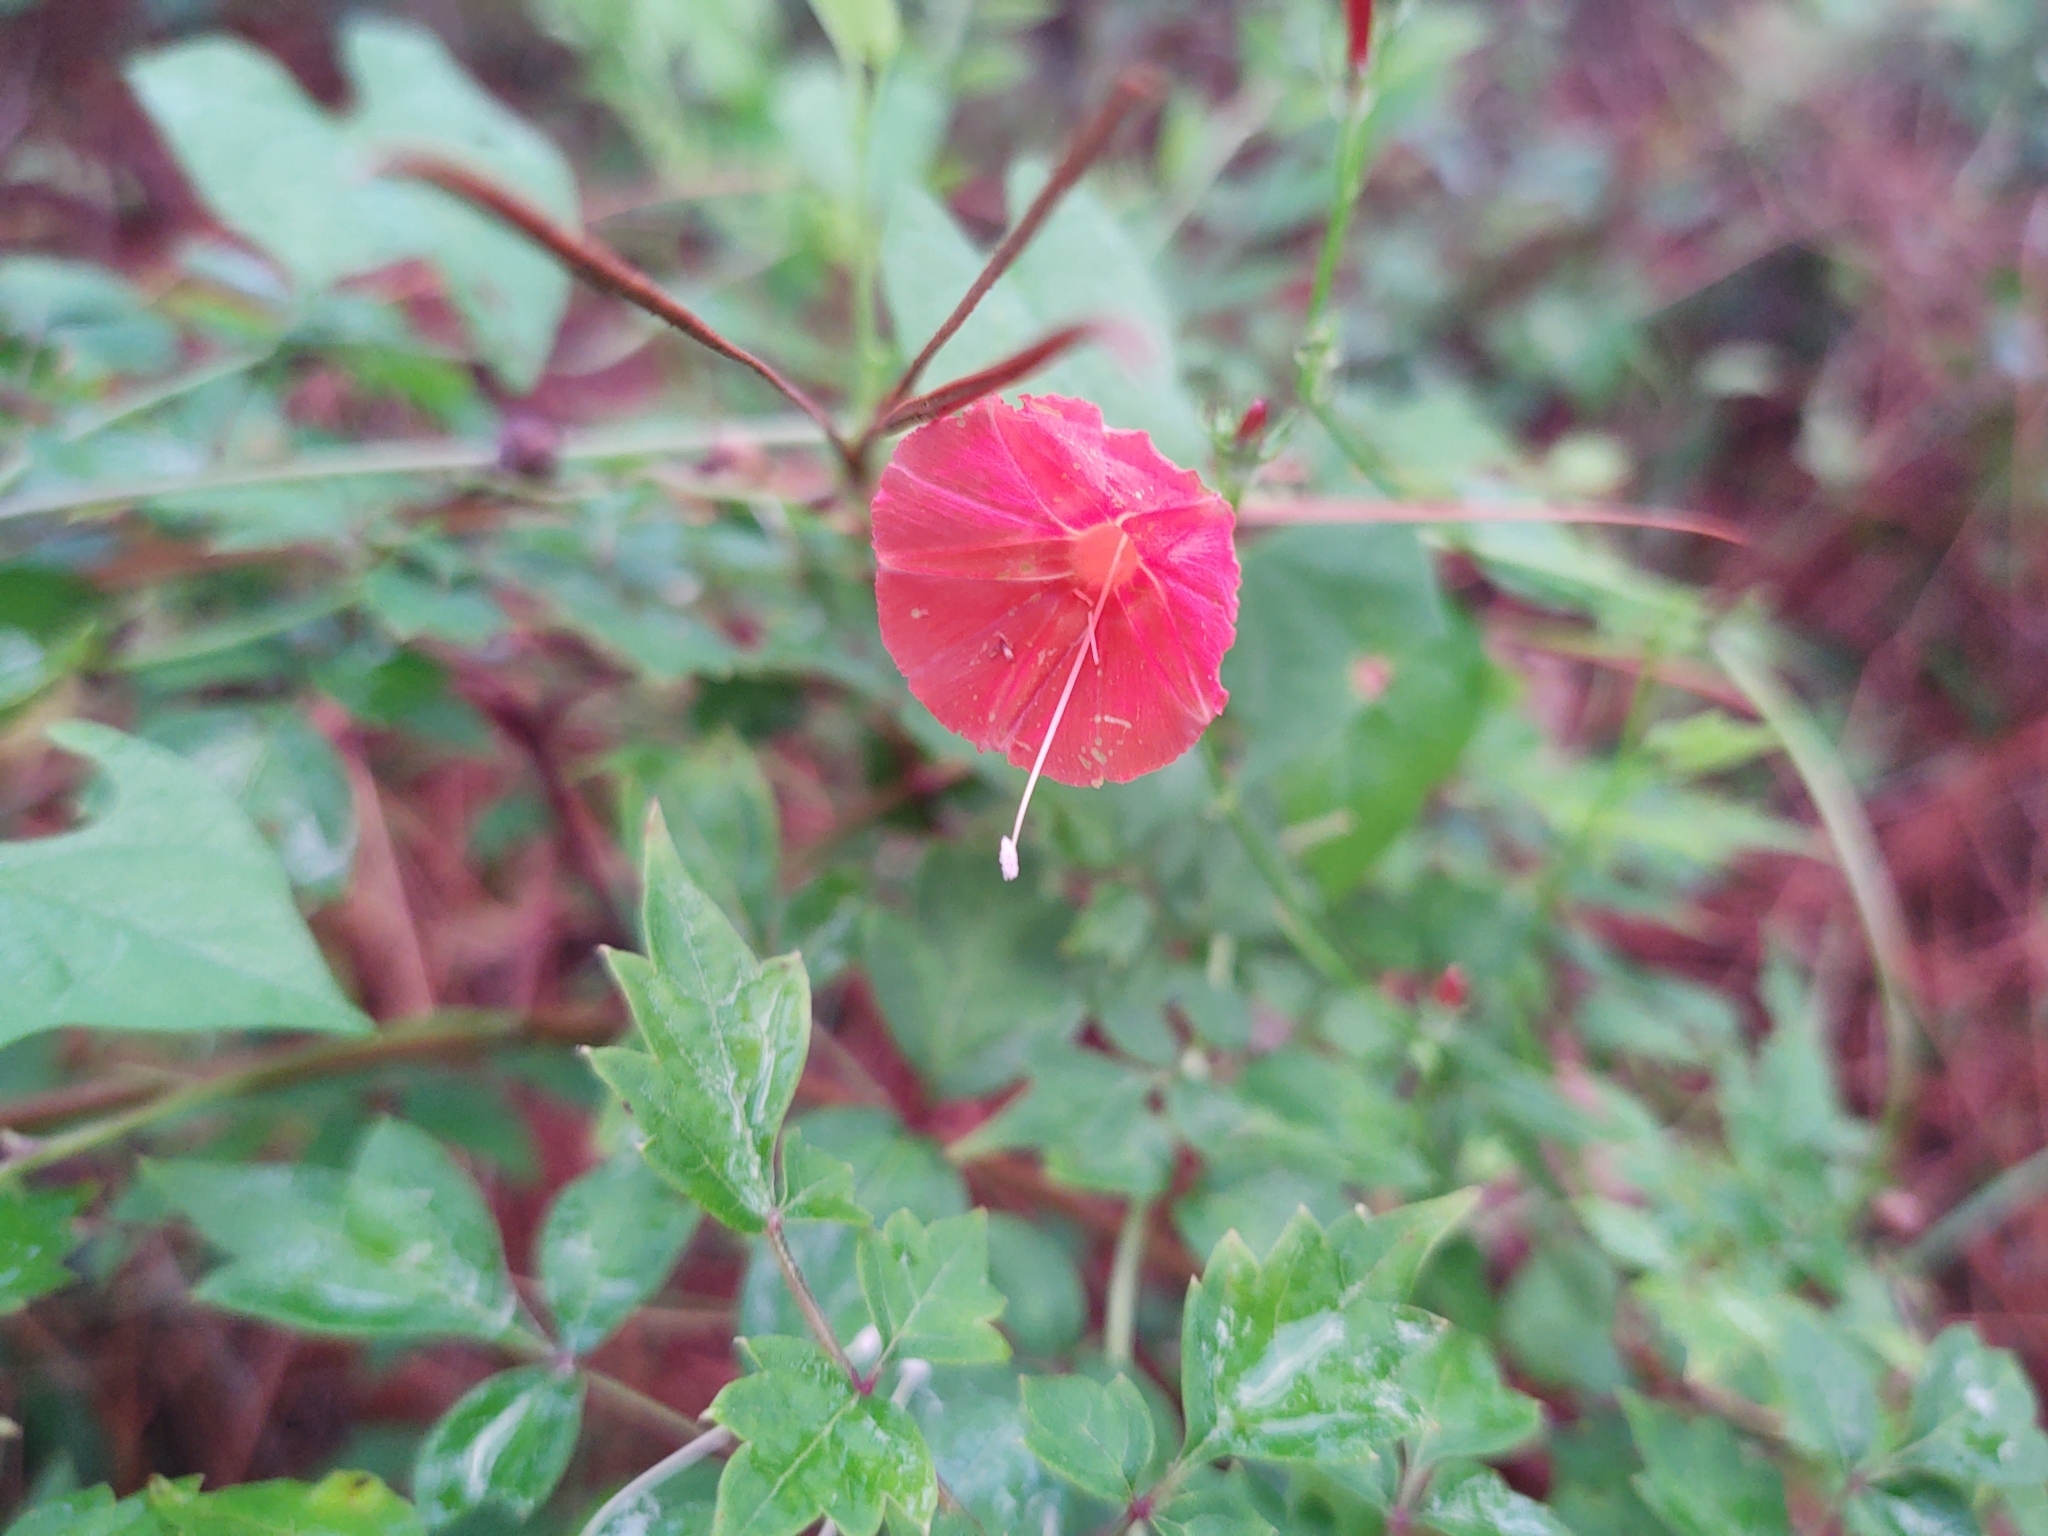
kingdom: Plantae
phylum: Tracheophyta
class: Magnoliopsida
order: Solanales
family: Convolvulaceae
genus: Ipomoea
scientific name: Ipomoea hederifolia
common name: Ivy-leaf morning-glory
